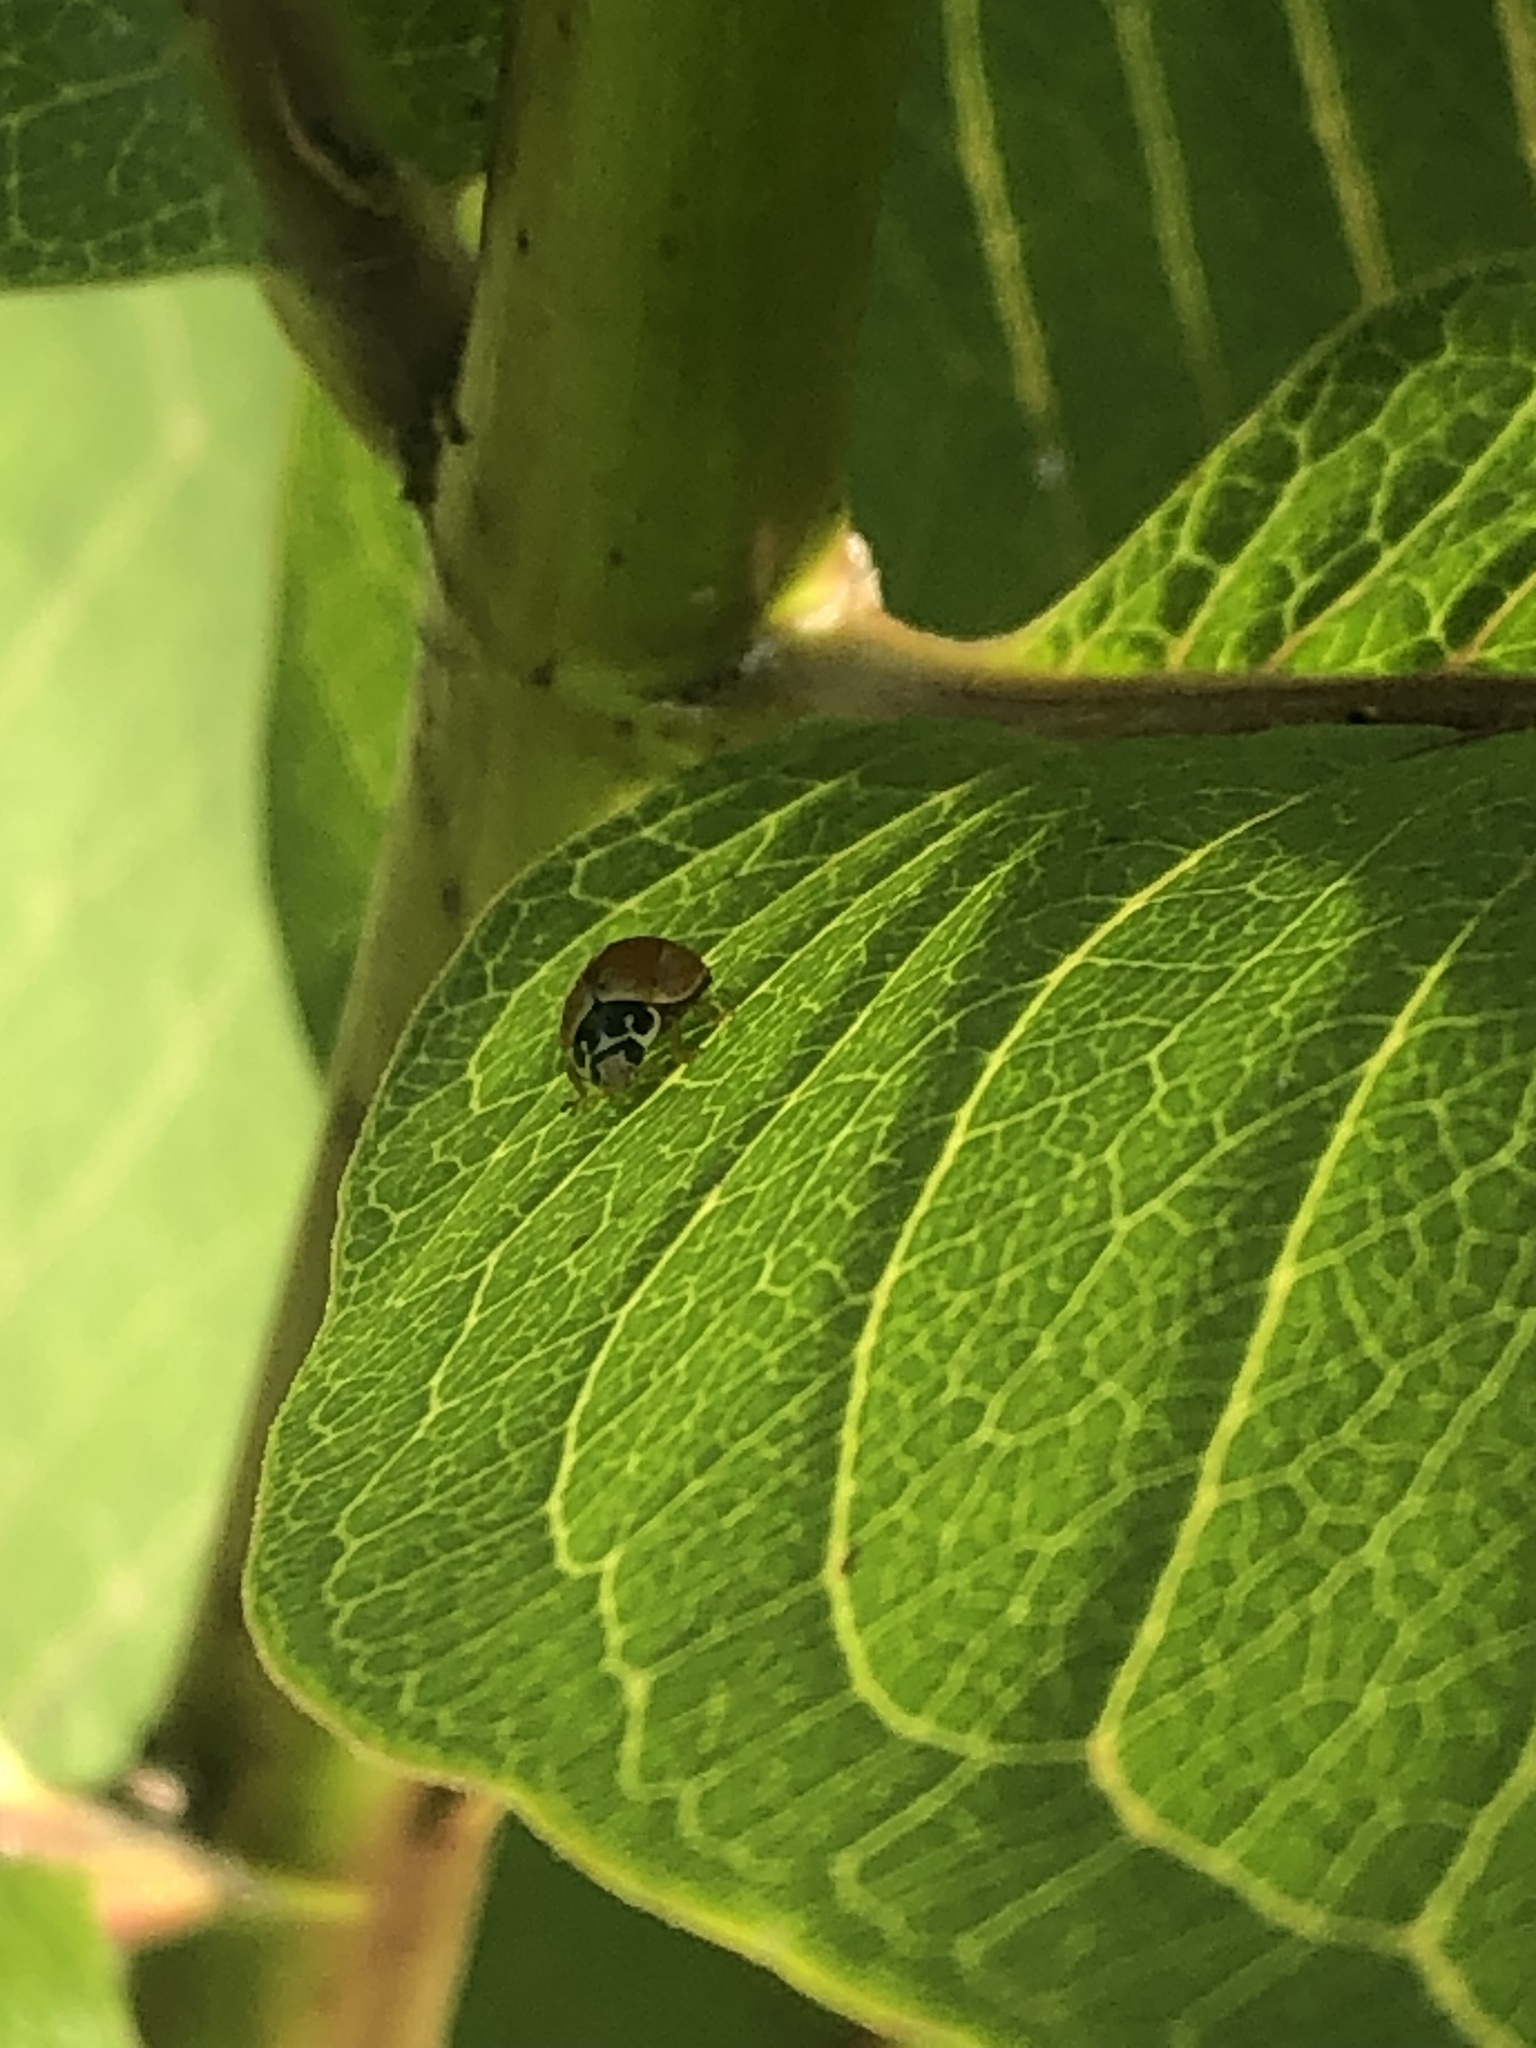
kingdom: Animalia
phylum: Arthropoda
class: Insecta
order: Coleoptera
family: Coccinellidae
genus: Cycloneda
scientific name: Cycloneda munda
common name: Polished lady beetle
